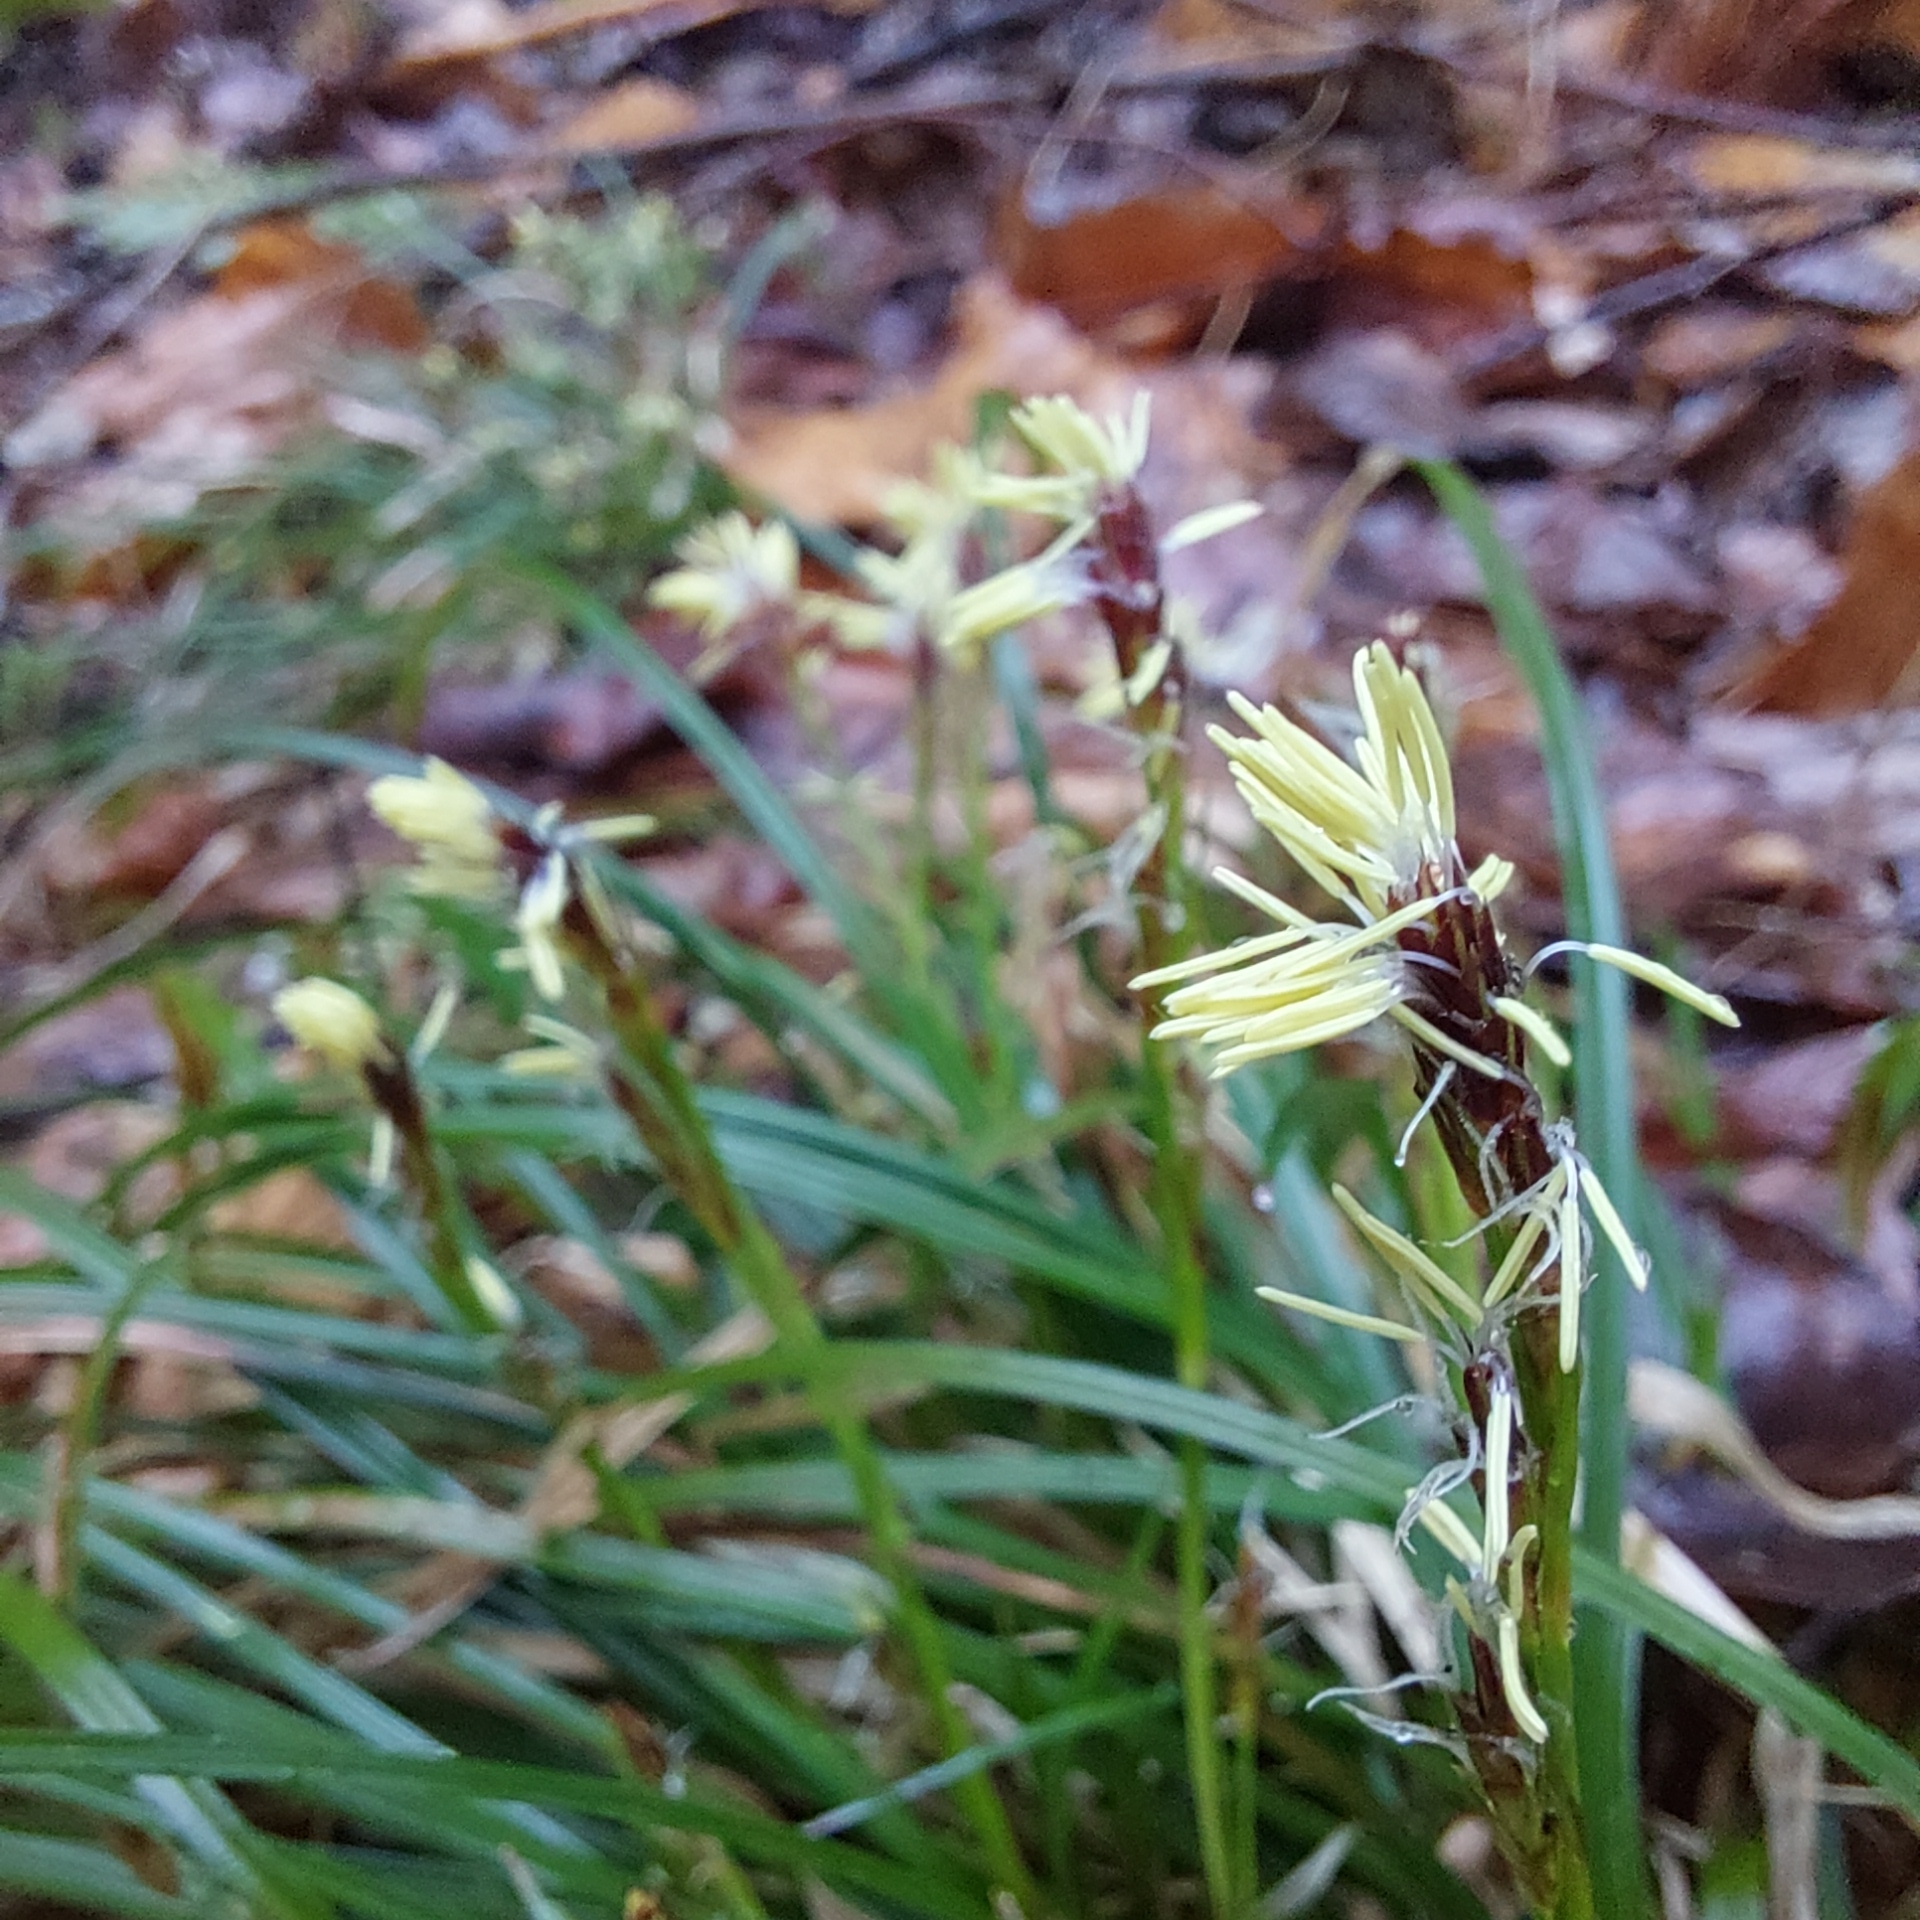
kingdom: Plantae
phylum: Tracheophyta
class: Liliopsida
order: Poales
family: Cyperaceae
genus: Carex
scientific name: Carex pedunculata
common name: Pedunculate sedge
